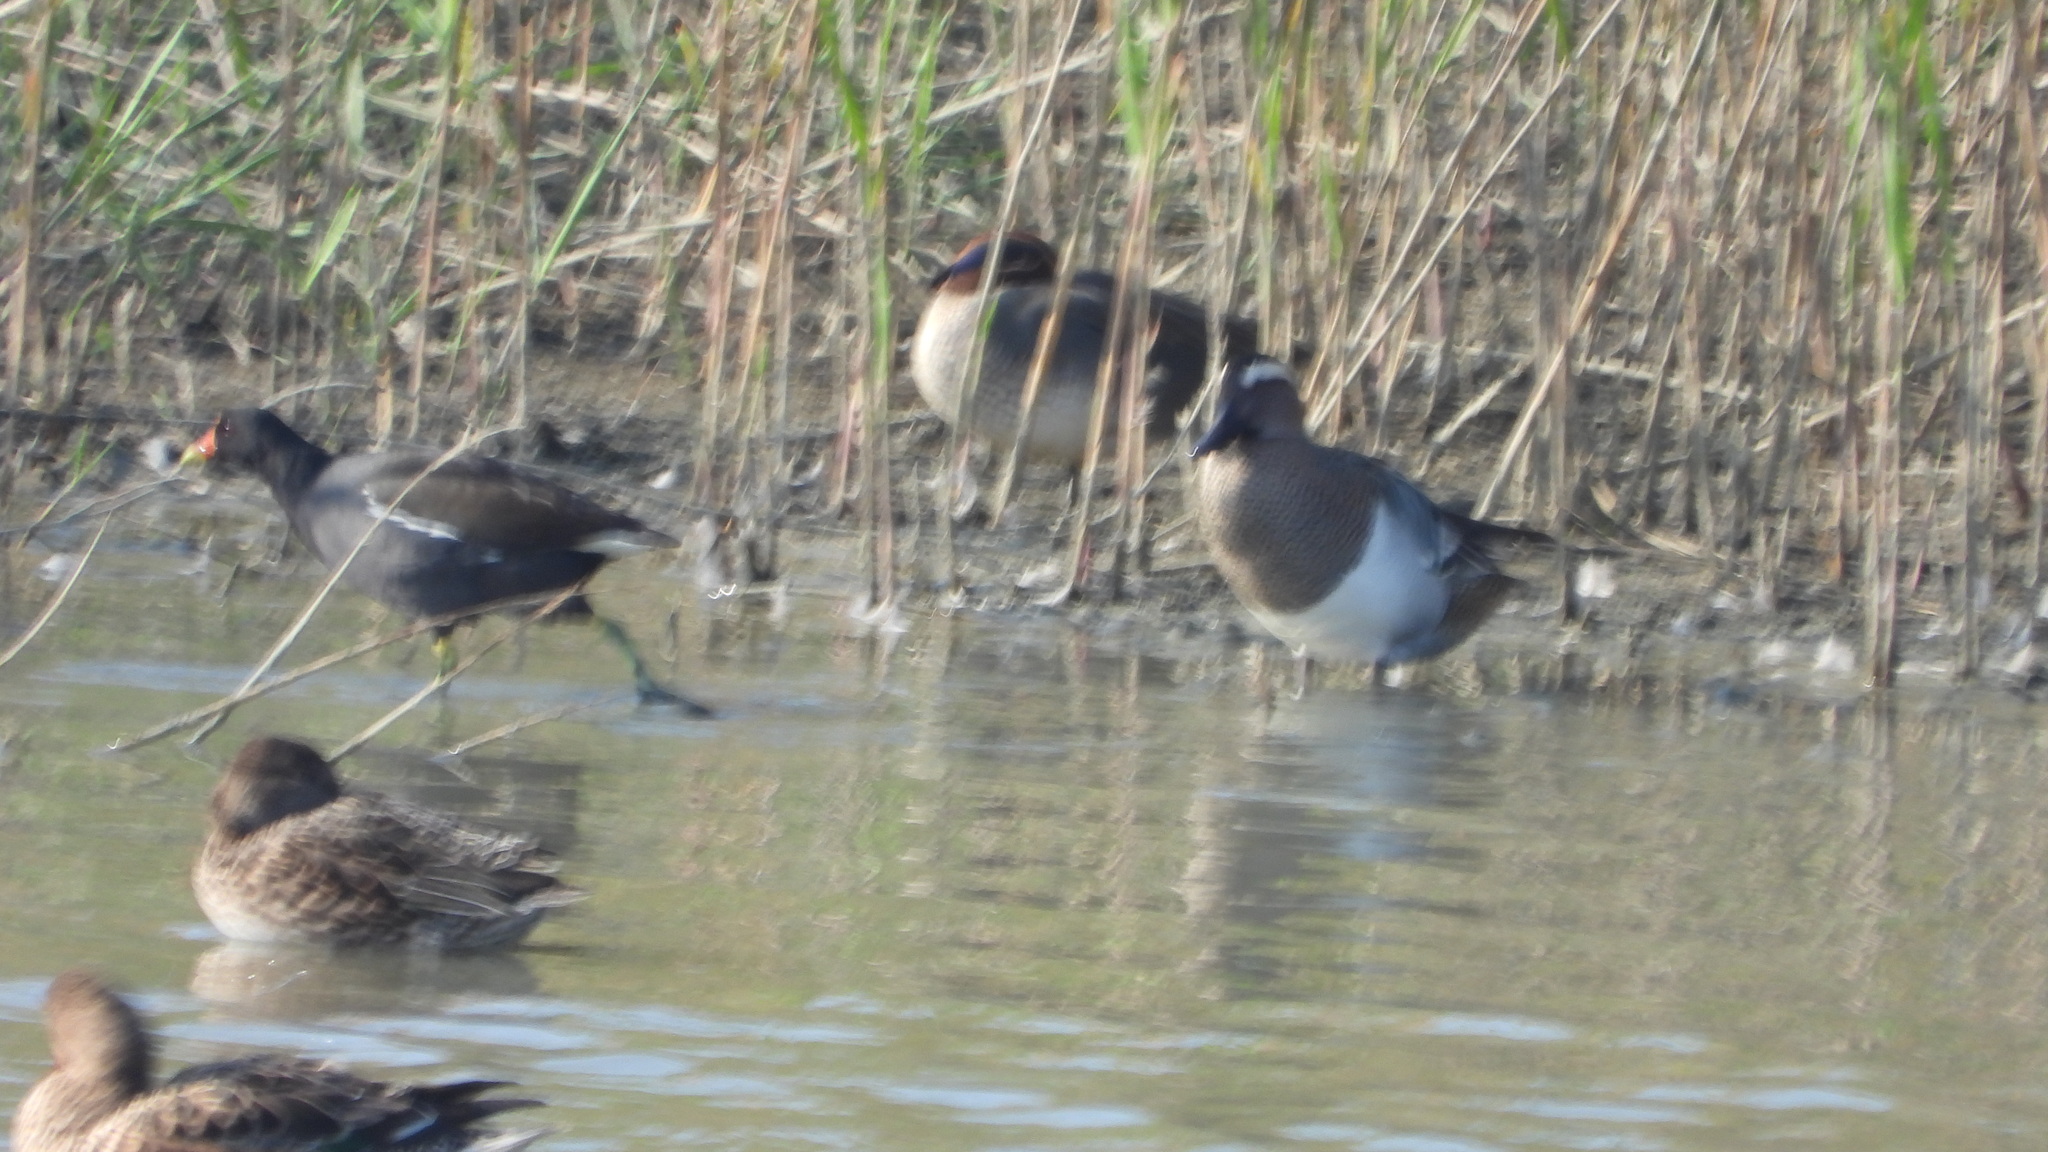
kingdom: Animalia
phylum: Chordata
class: Aves
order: Anseriformes
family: Anatidae
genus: Spatula
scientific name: Spatula querquedula
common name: Garganey
